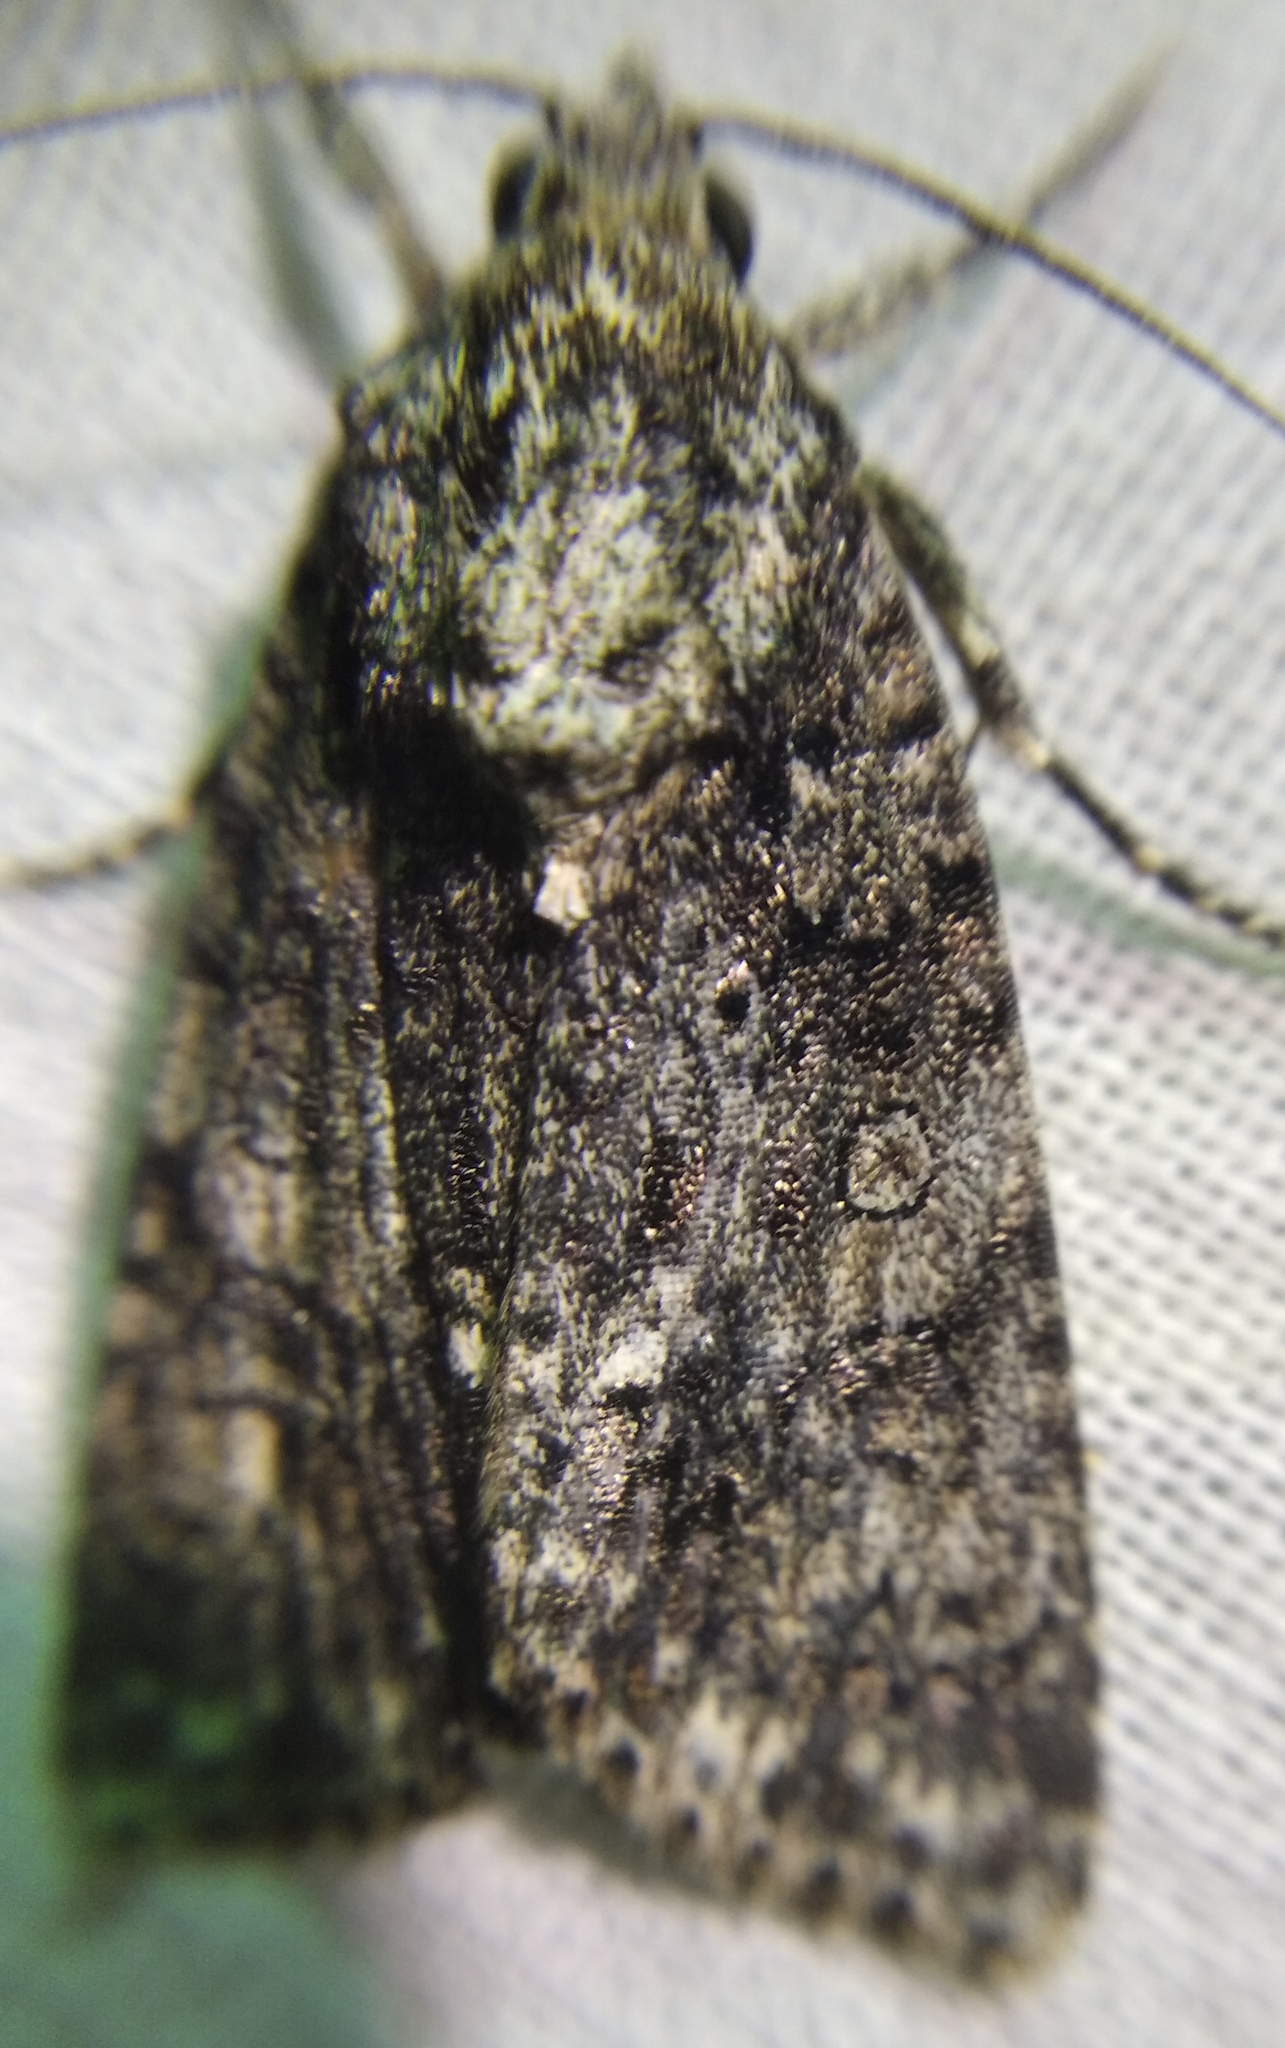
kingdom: Animalia
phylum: Arthropoda
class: Insecta
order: Lepidoptera
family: Noctuidae
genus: Acronicta
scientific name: Acronicta rumicis
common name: Knot grass
